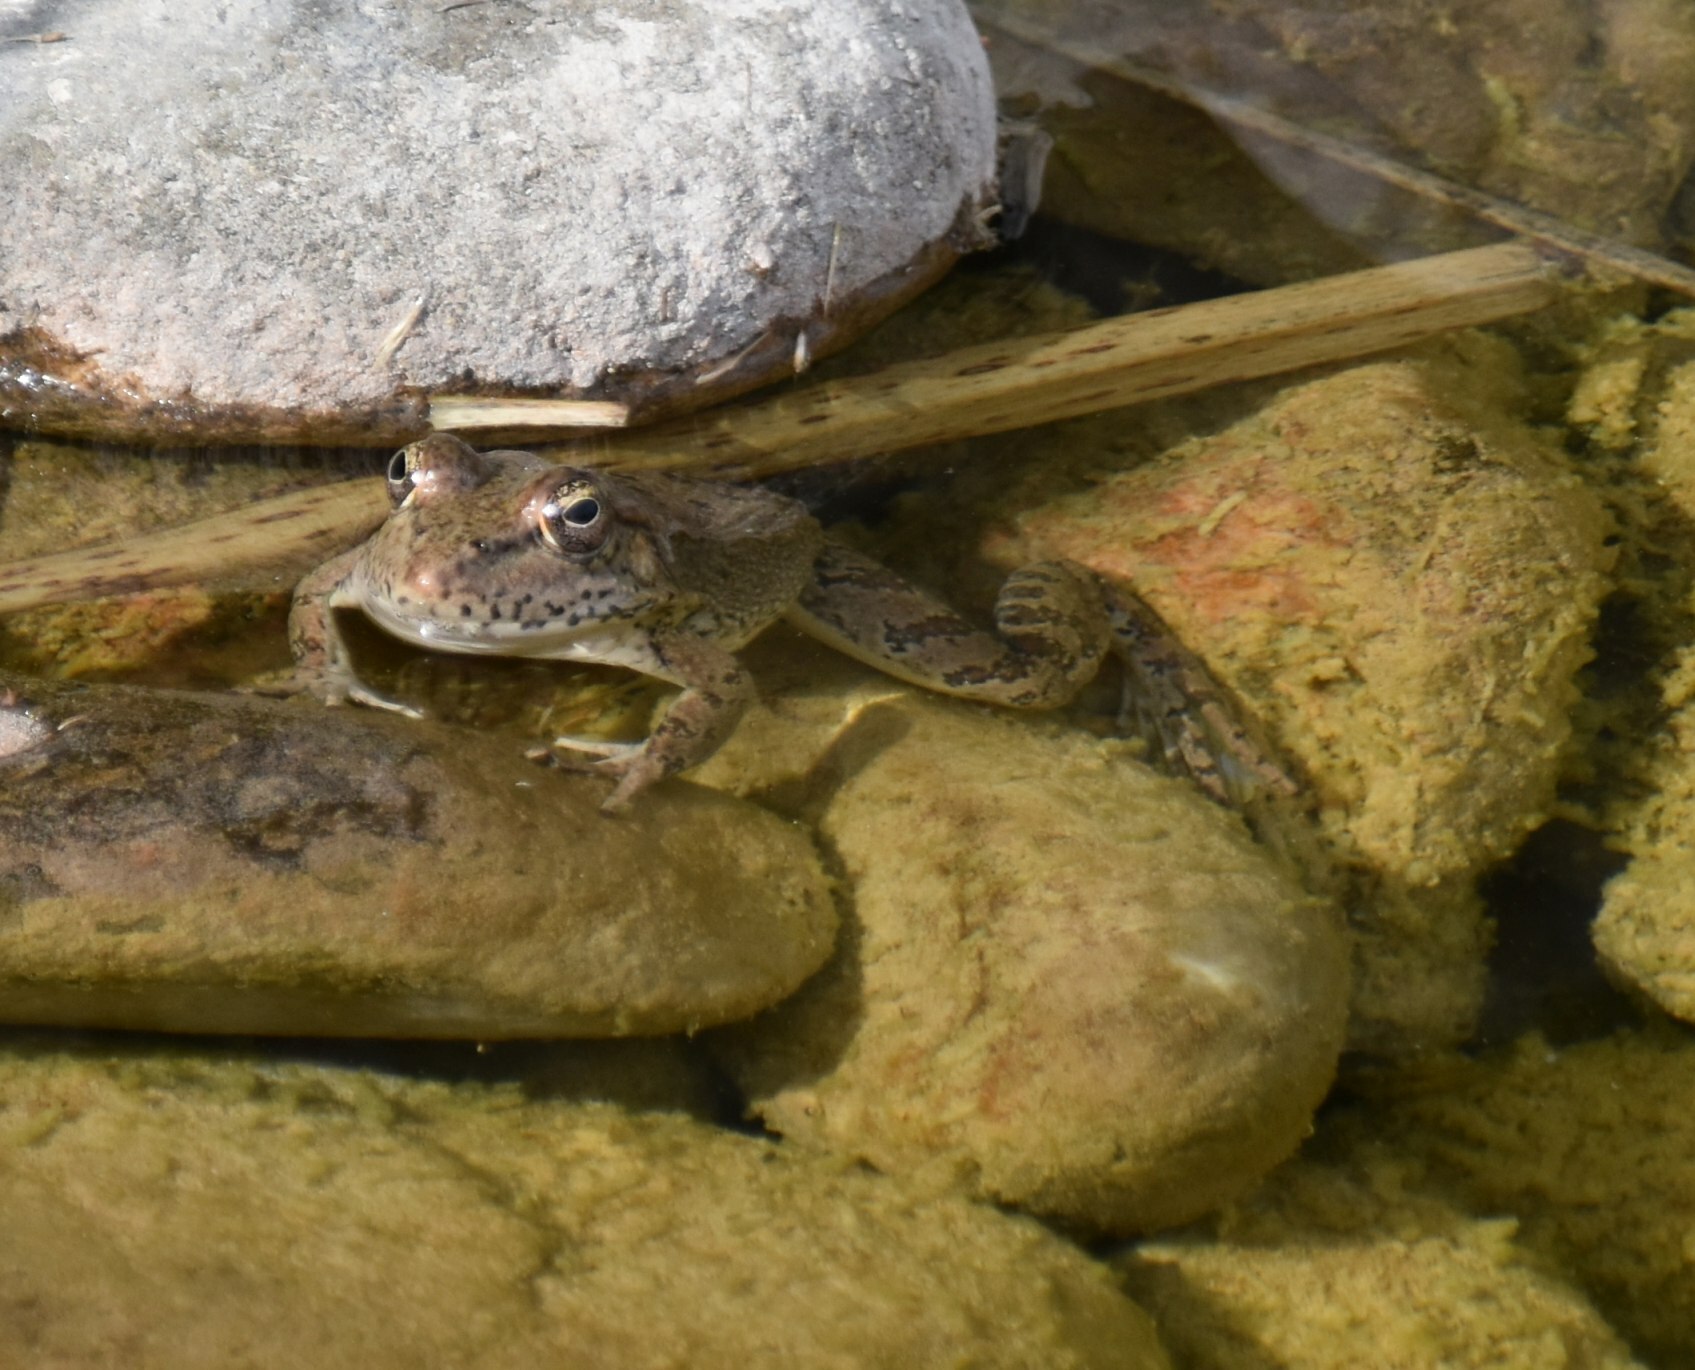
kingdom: Animalia
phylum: Chordata
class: Amphibia
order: Anura
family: Ranidae
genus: Pelophylax
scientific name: Pelophylax ridibundus
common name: Marsh frog
